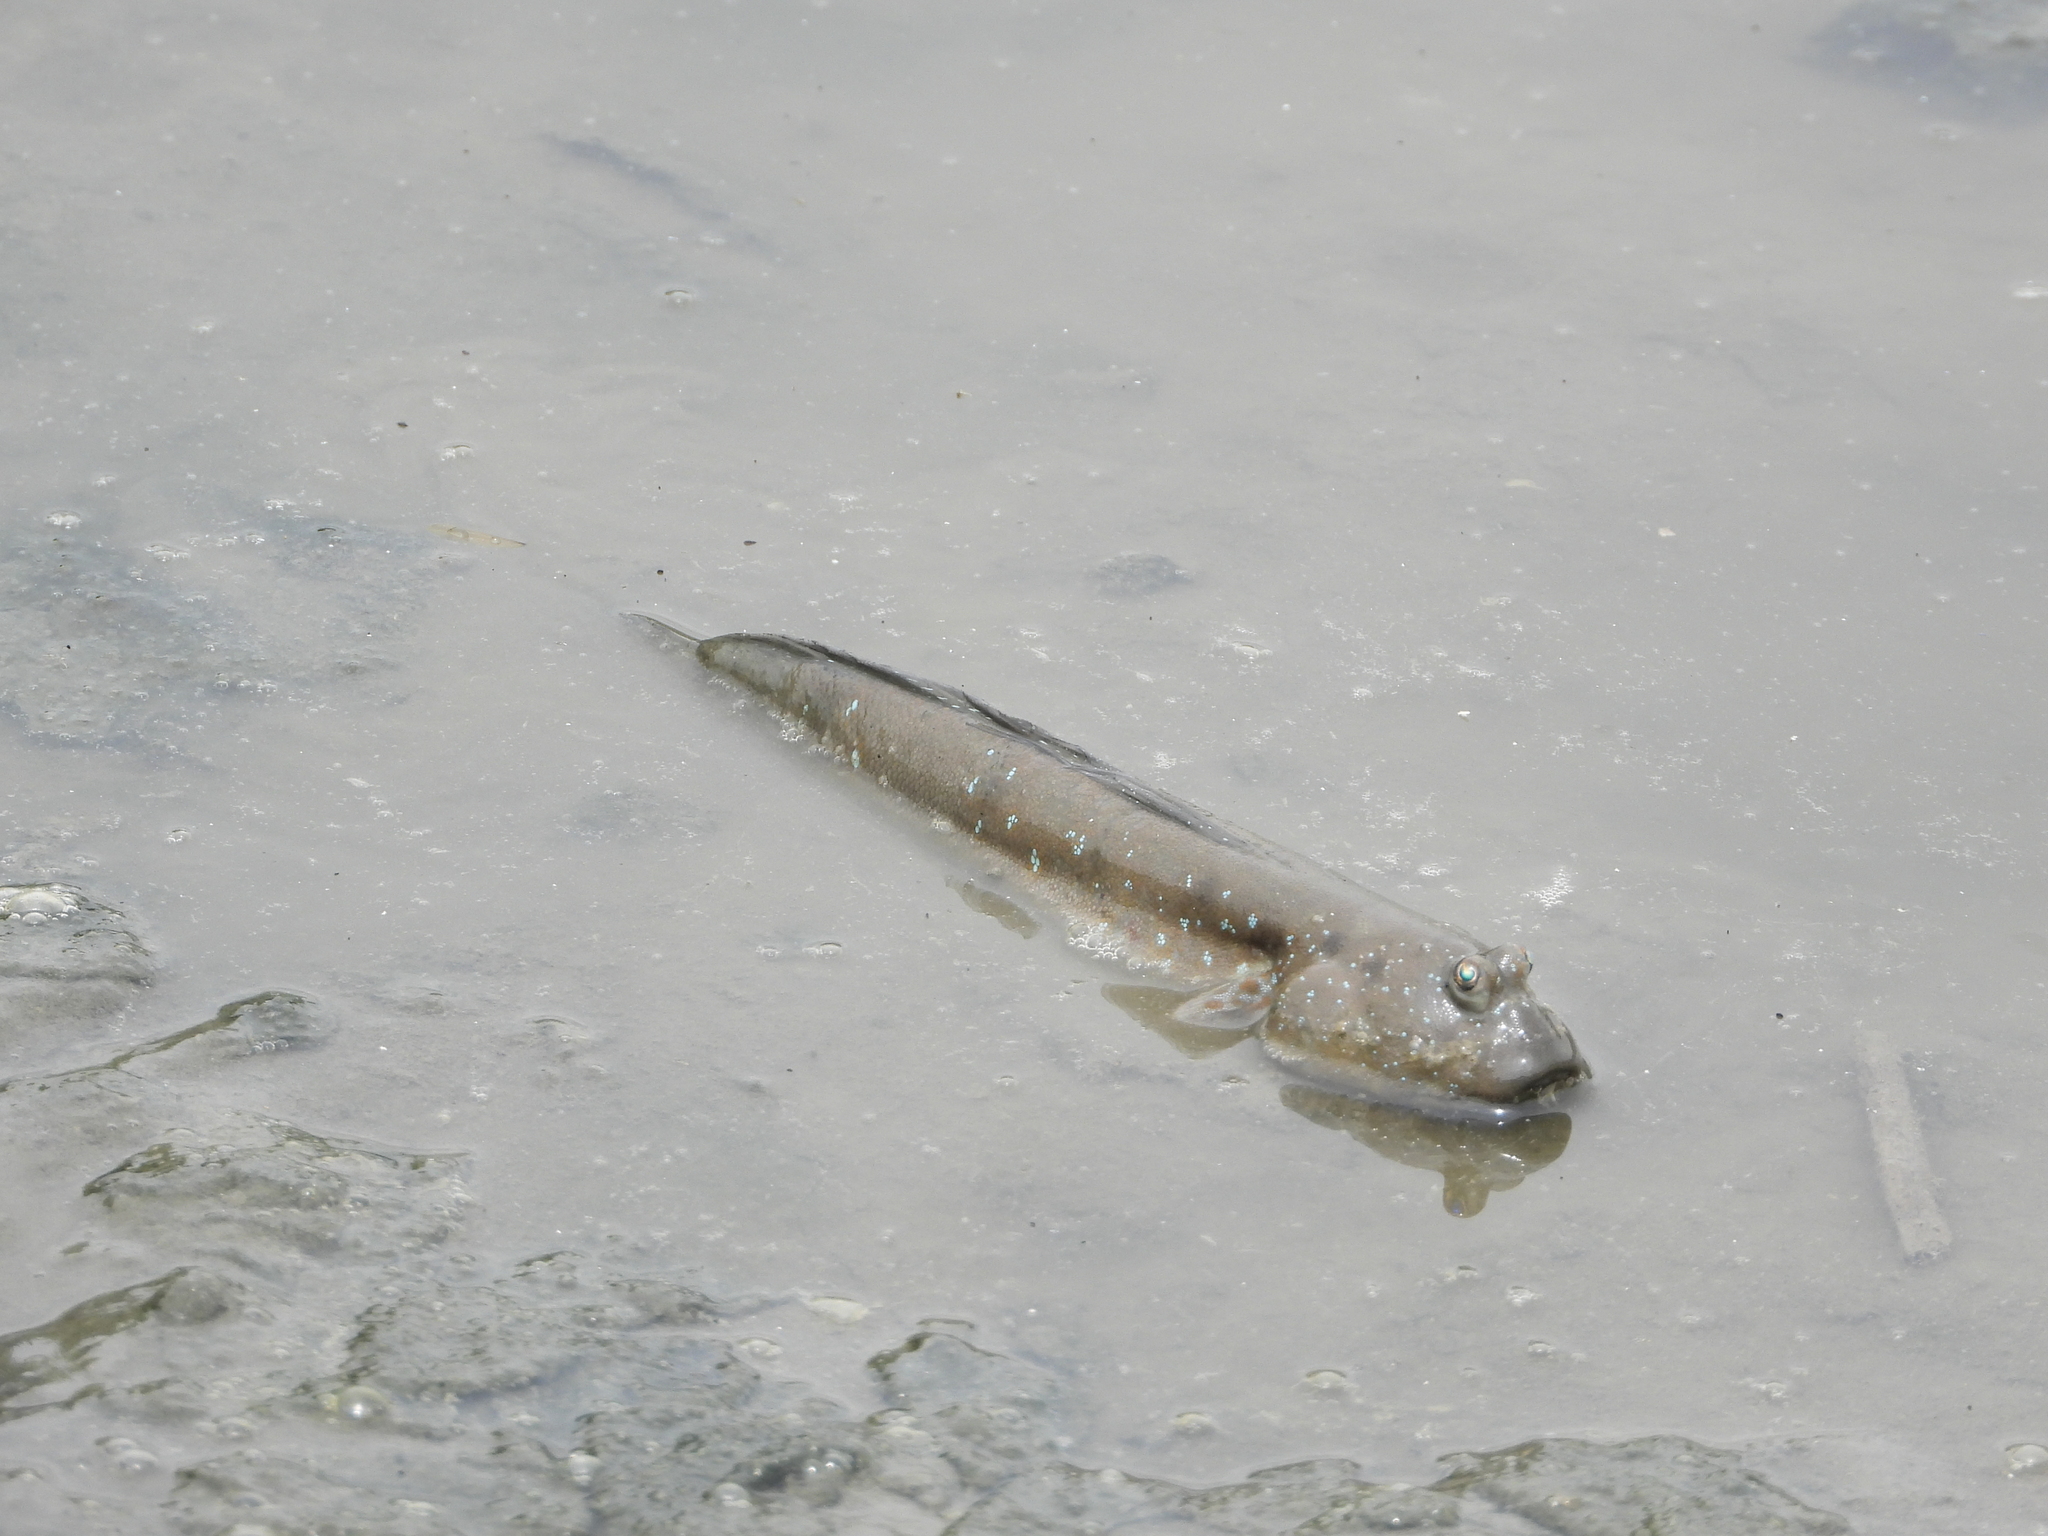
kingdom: Animalia
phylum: Chordata
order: Perciformes
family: Gobiidae
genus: Boleophthalmus
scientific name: Boleophthalmus pectinirostris
